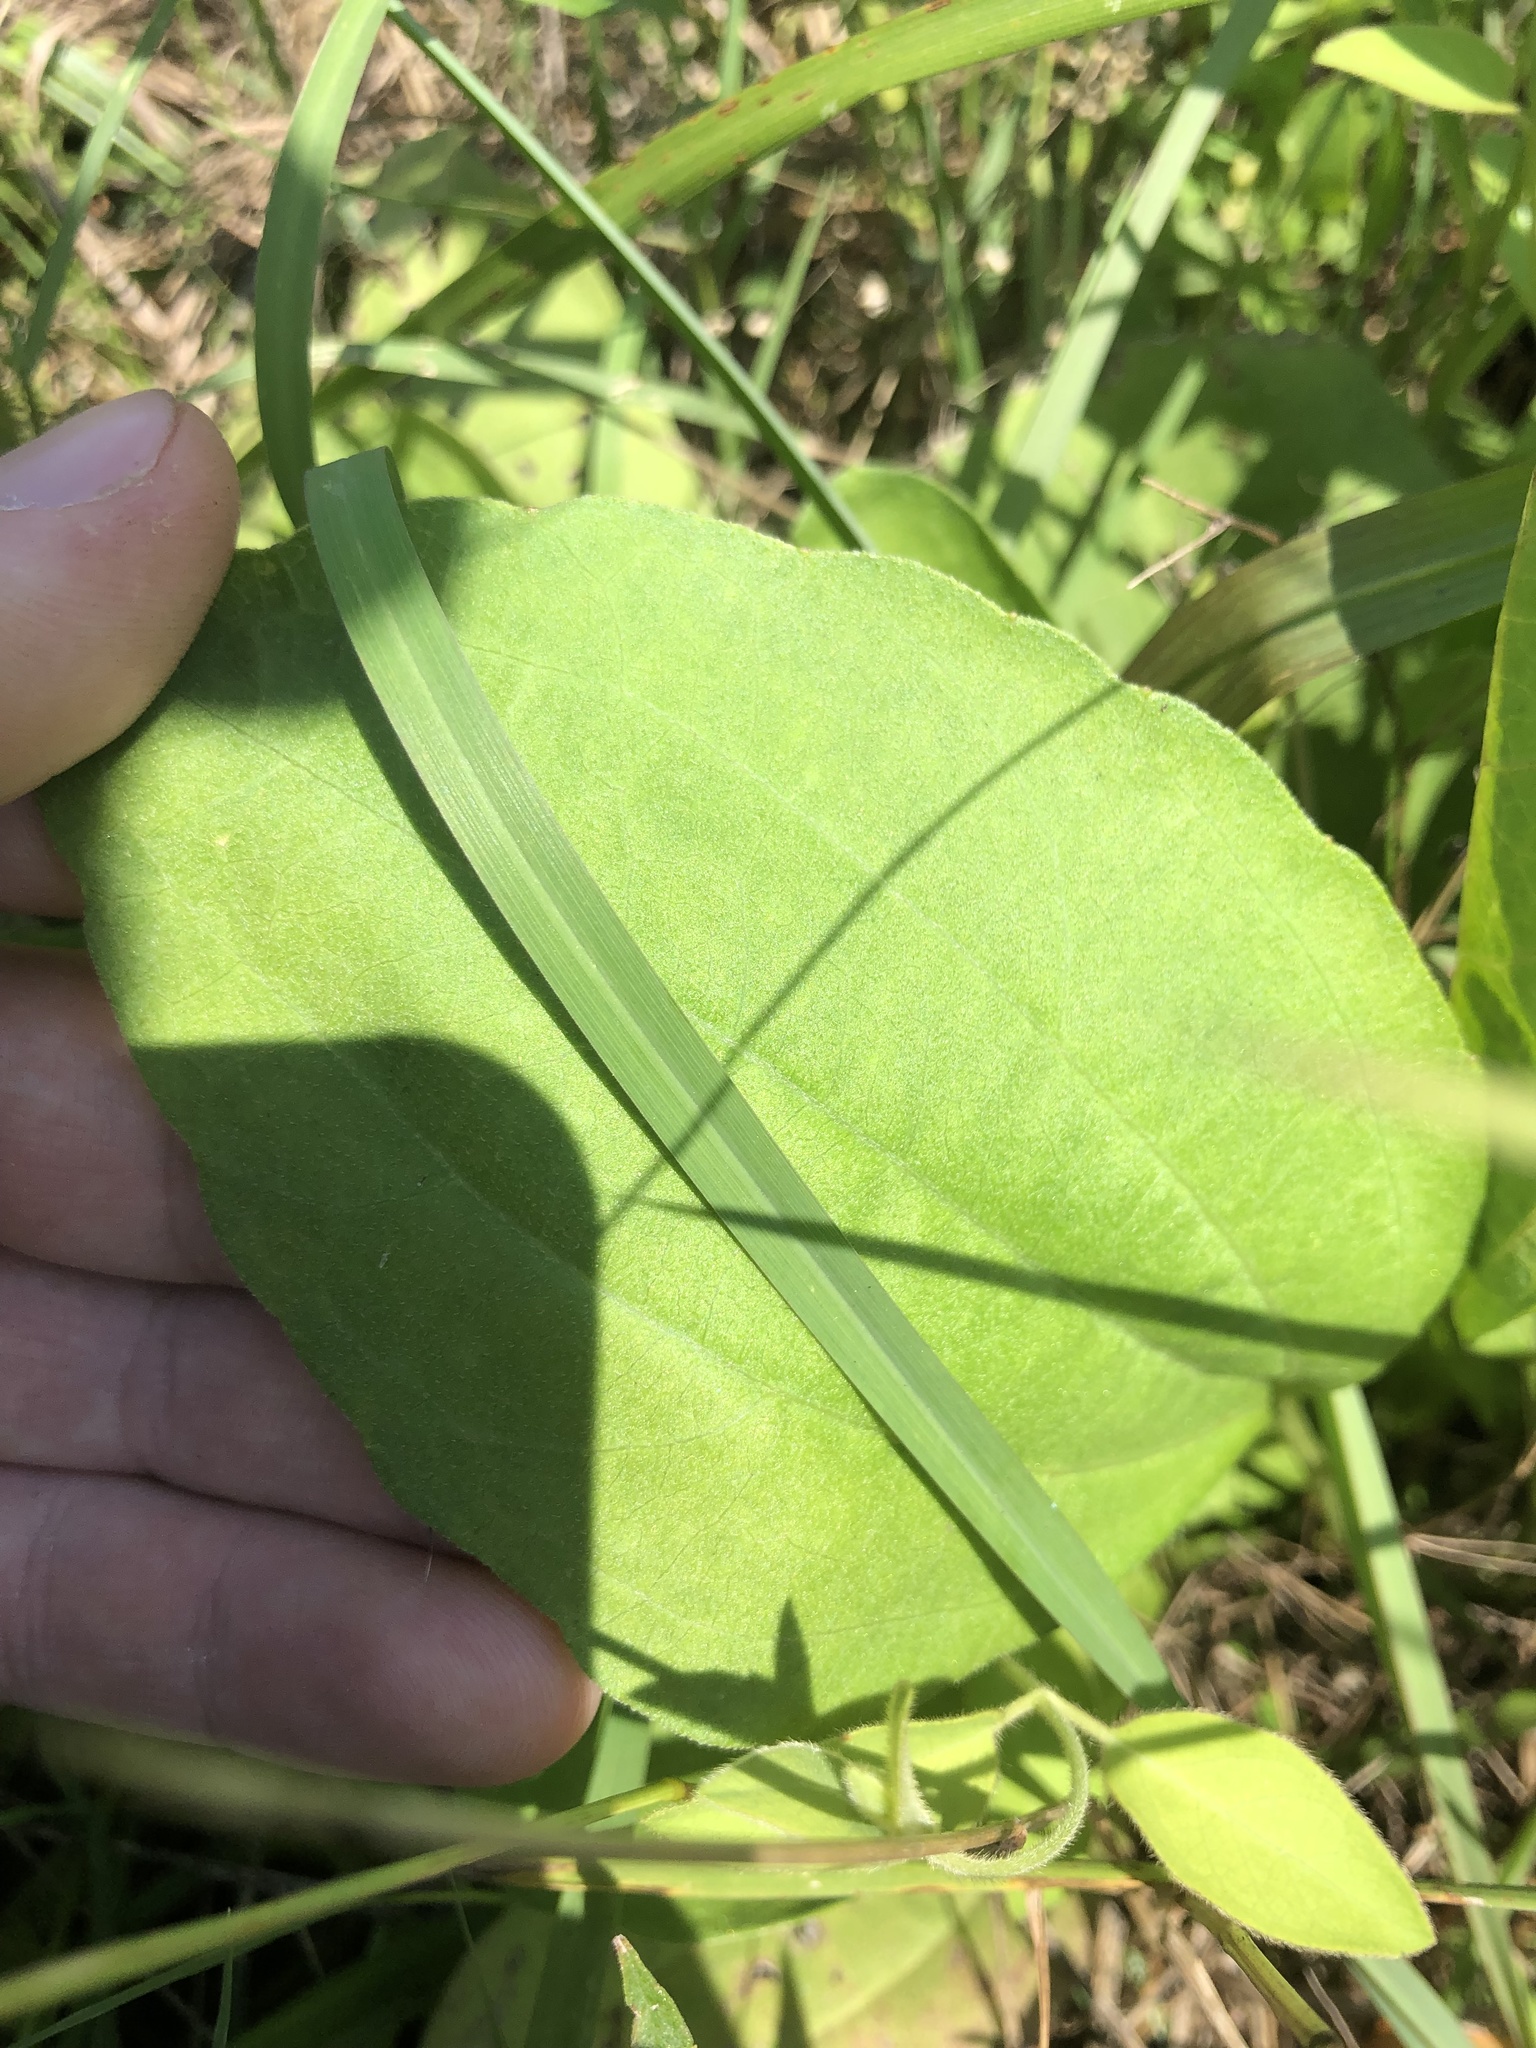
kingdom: Plantae
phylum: Tracheophyta
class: Magnoliopsida
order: Asterales
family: Asteraceae
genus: Rudbeckia
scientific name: Rudbeckia grandiflora
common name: Large-flowered coneflower
